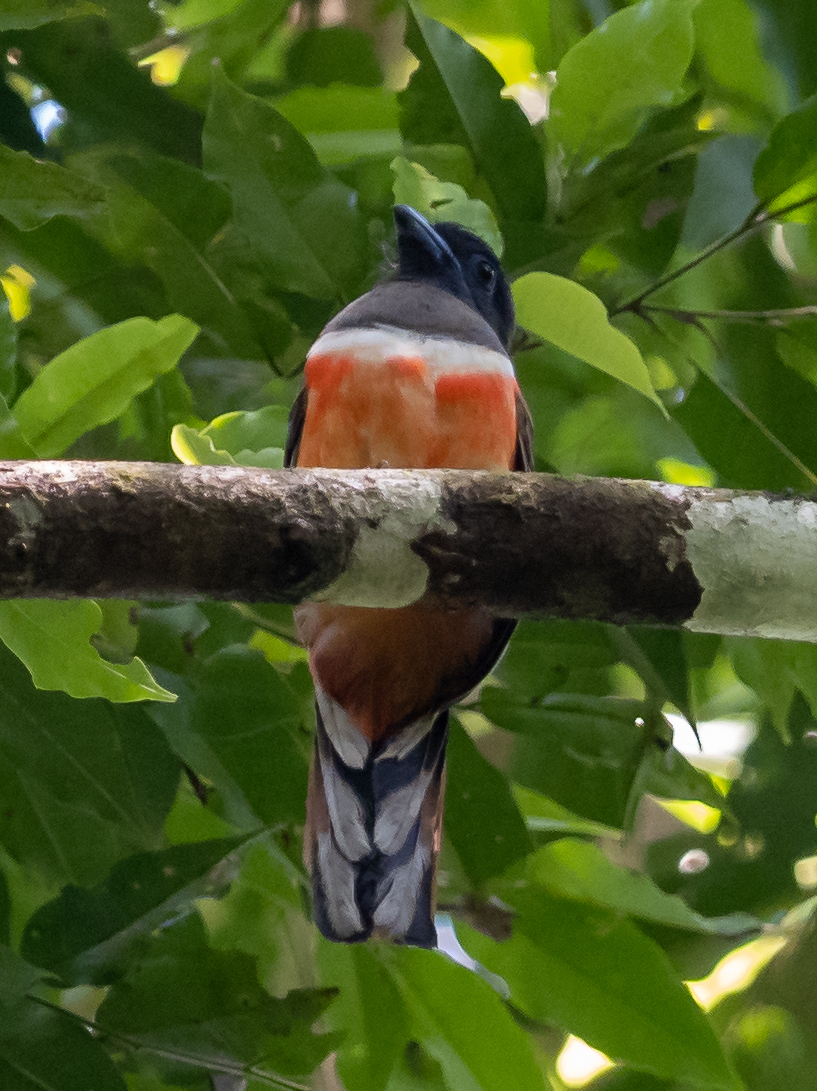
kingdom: Animalia
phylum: Chordata
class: Aves
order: Trogoniformes
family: Trogonidae
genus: Harpactes
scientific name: Harpactes fasciatus
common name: Malabar trogon
